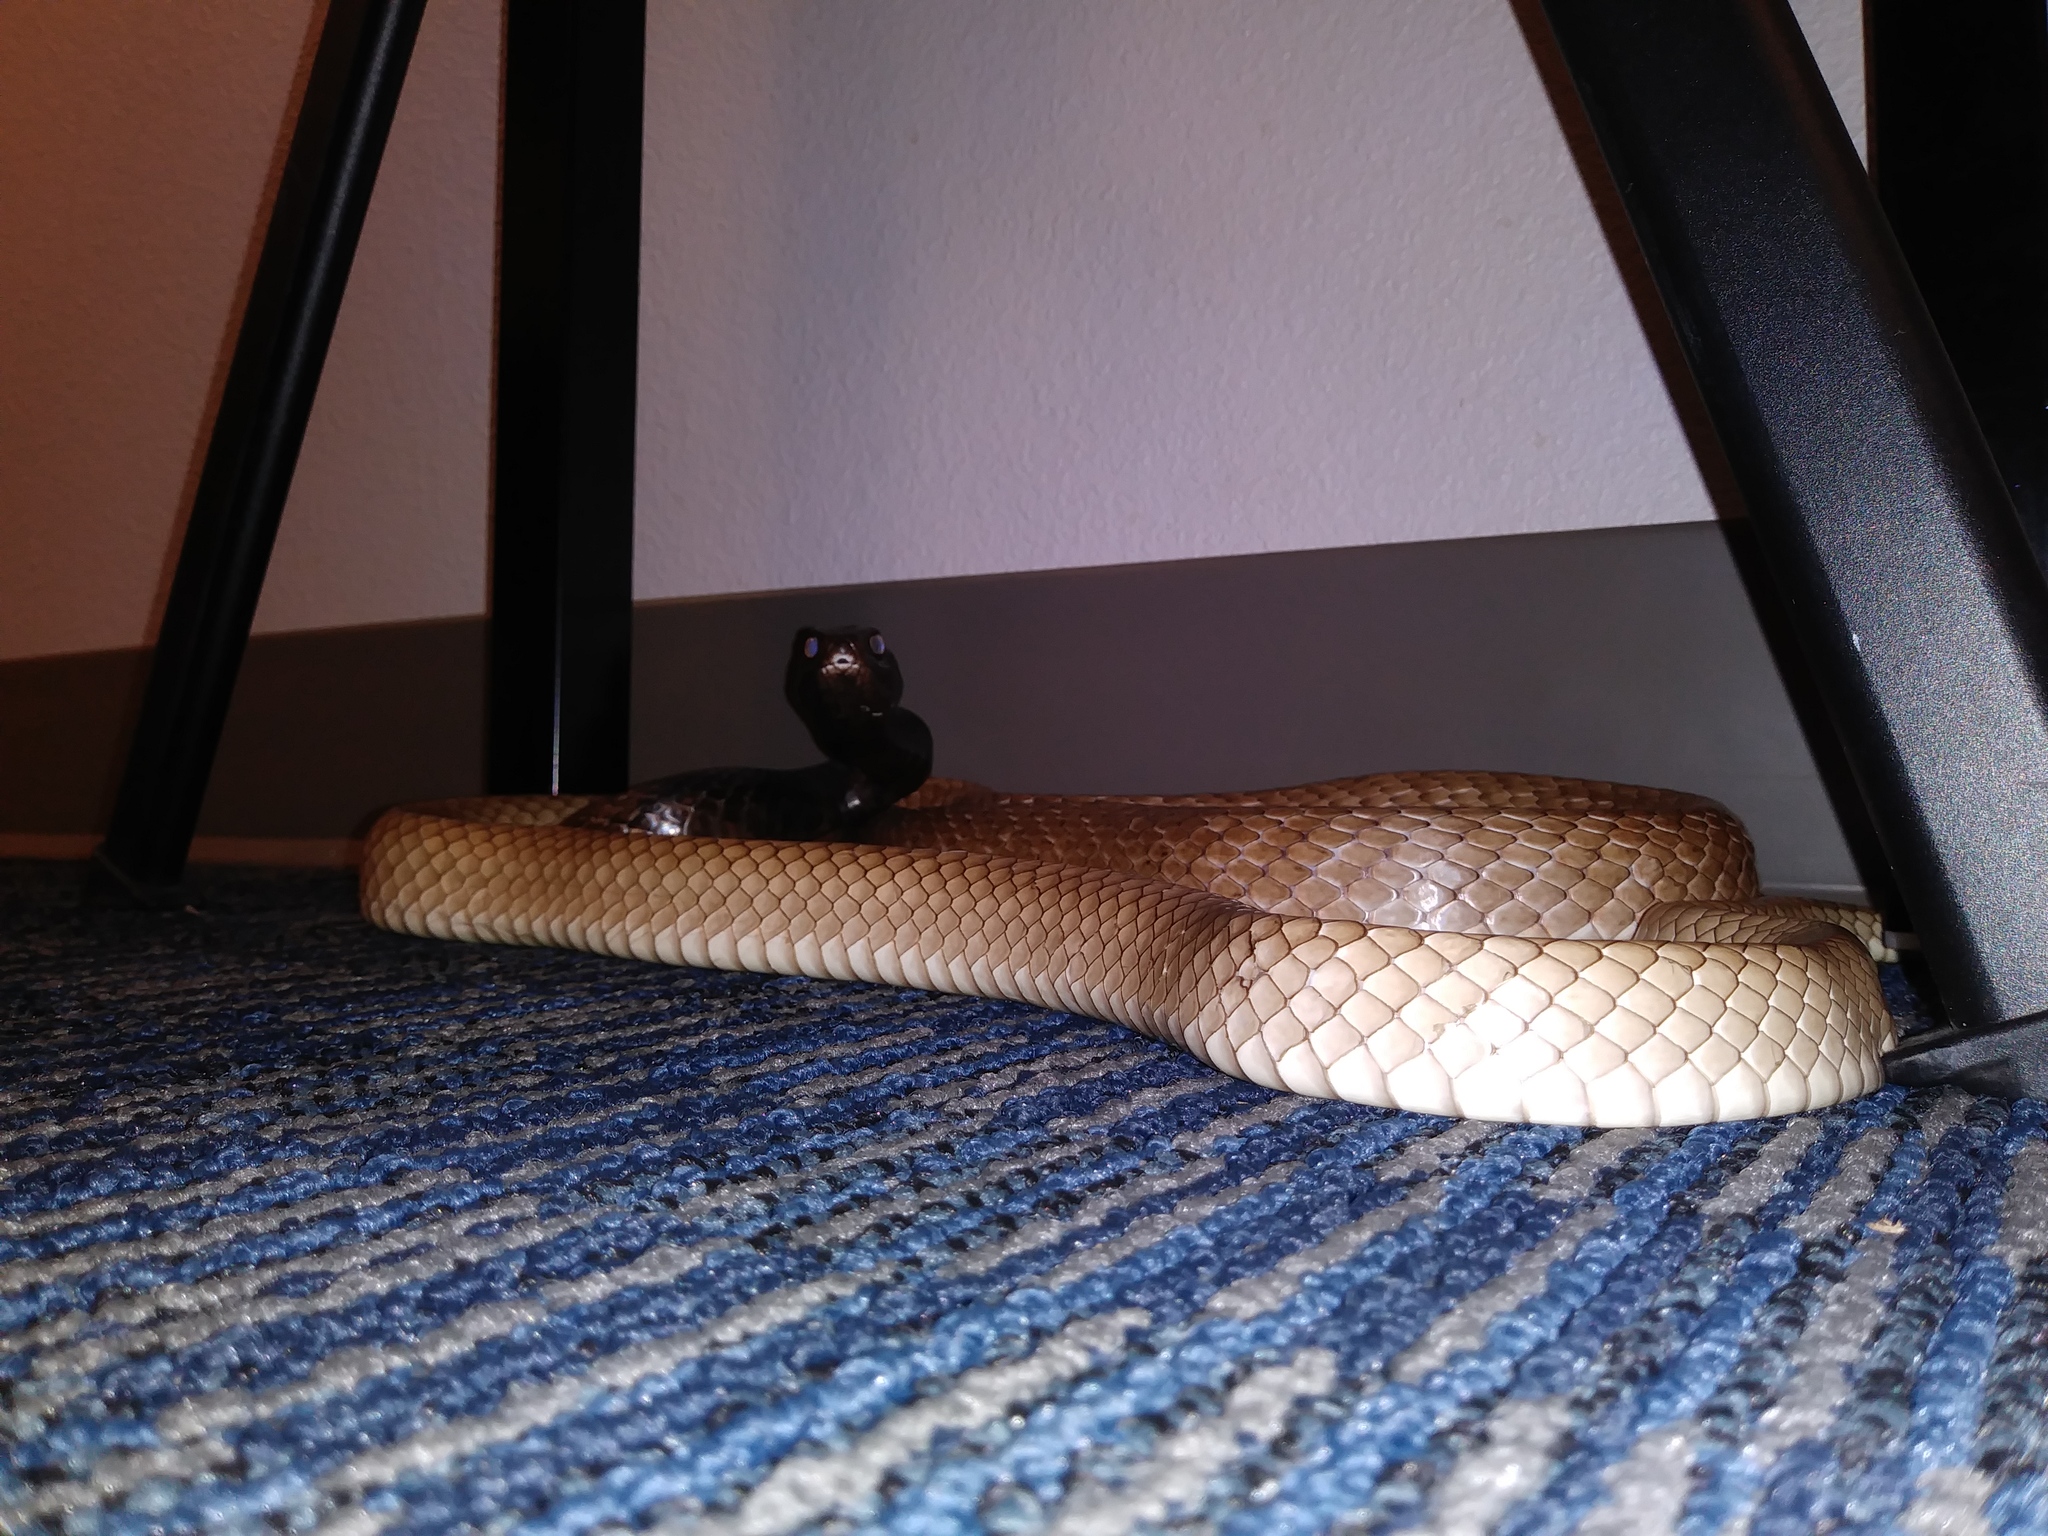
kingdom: Animalia
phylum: Chordata
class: Squamata
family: Colubridae
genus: Masticophis
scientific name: Masticophis flagellum
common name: Coachwhip
